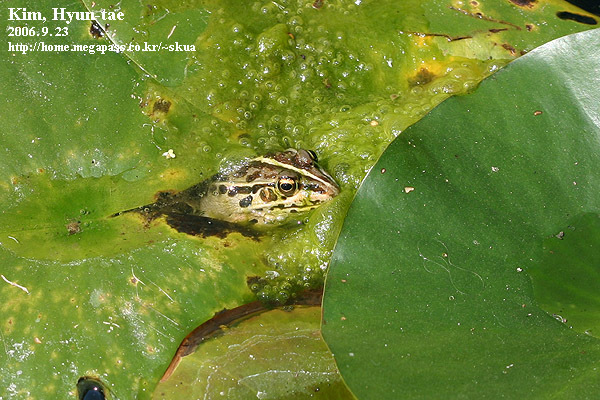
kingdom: Animalia
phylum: Chordata
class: Amphibia
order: Anura
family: Ranidae
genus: Pelophylax
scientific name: Pelophylax nigromaculatus
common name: Black-spotted pond frog
